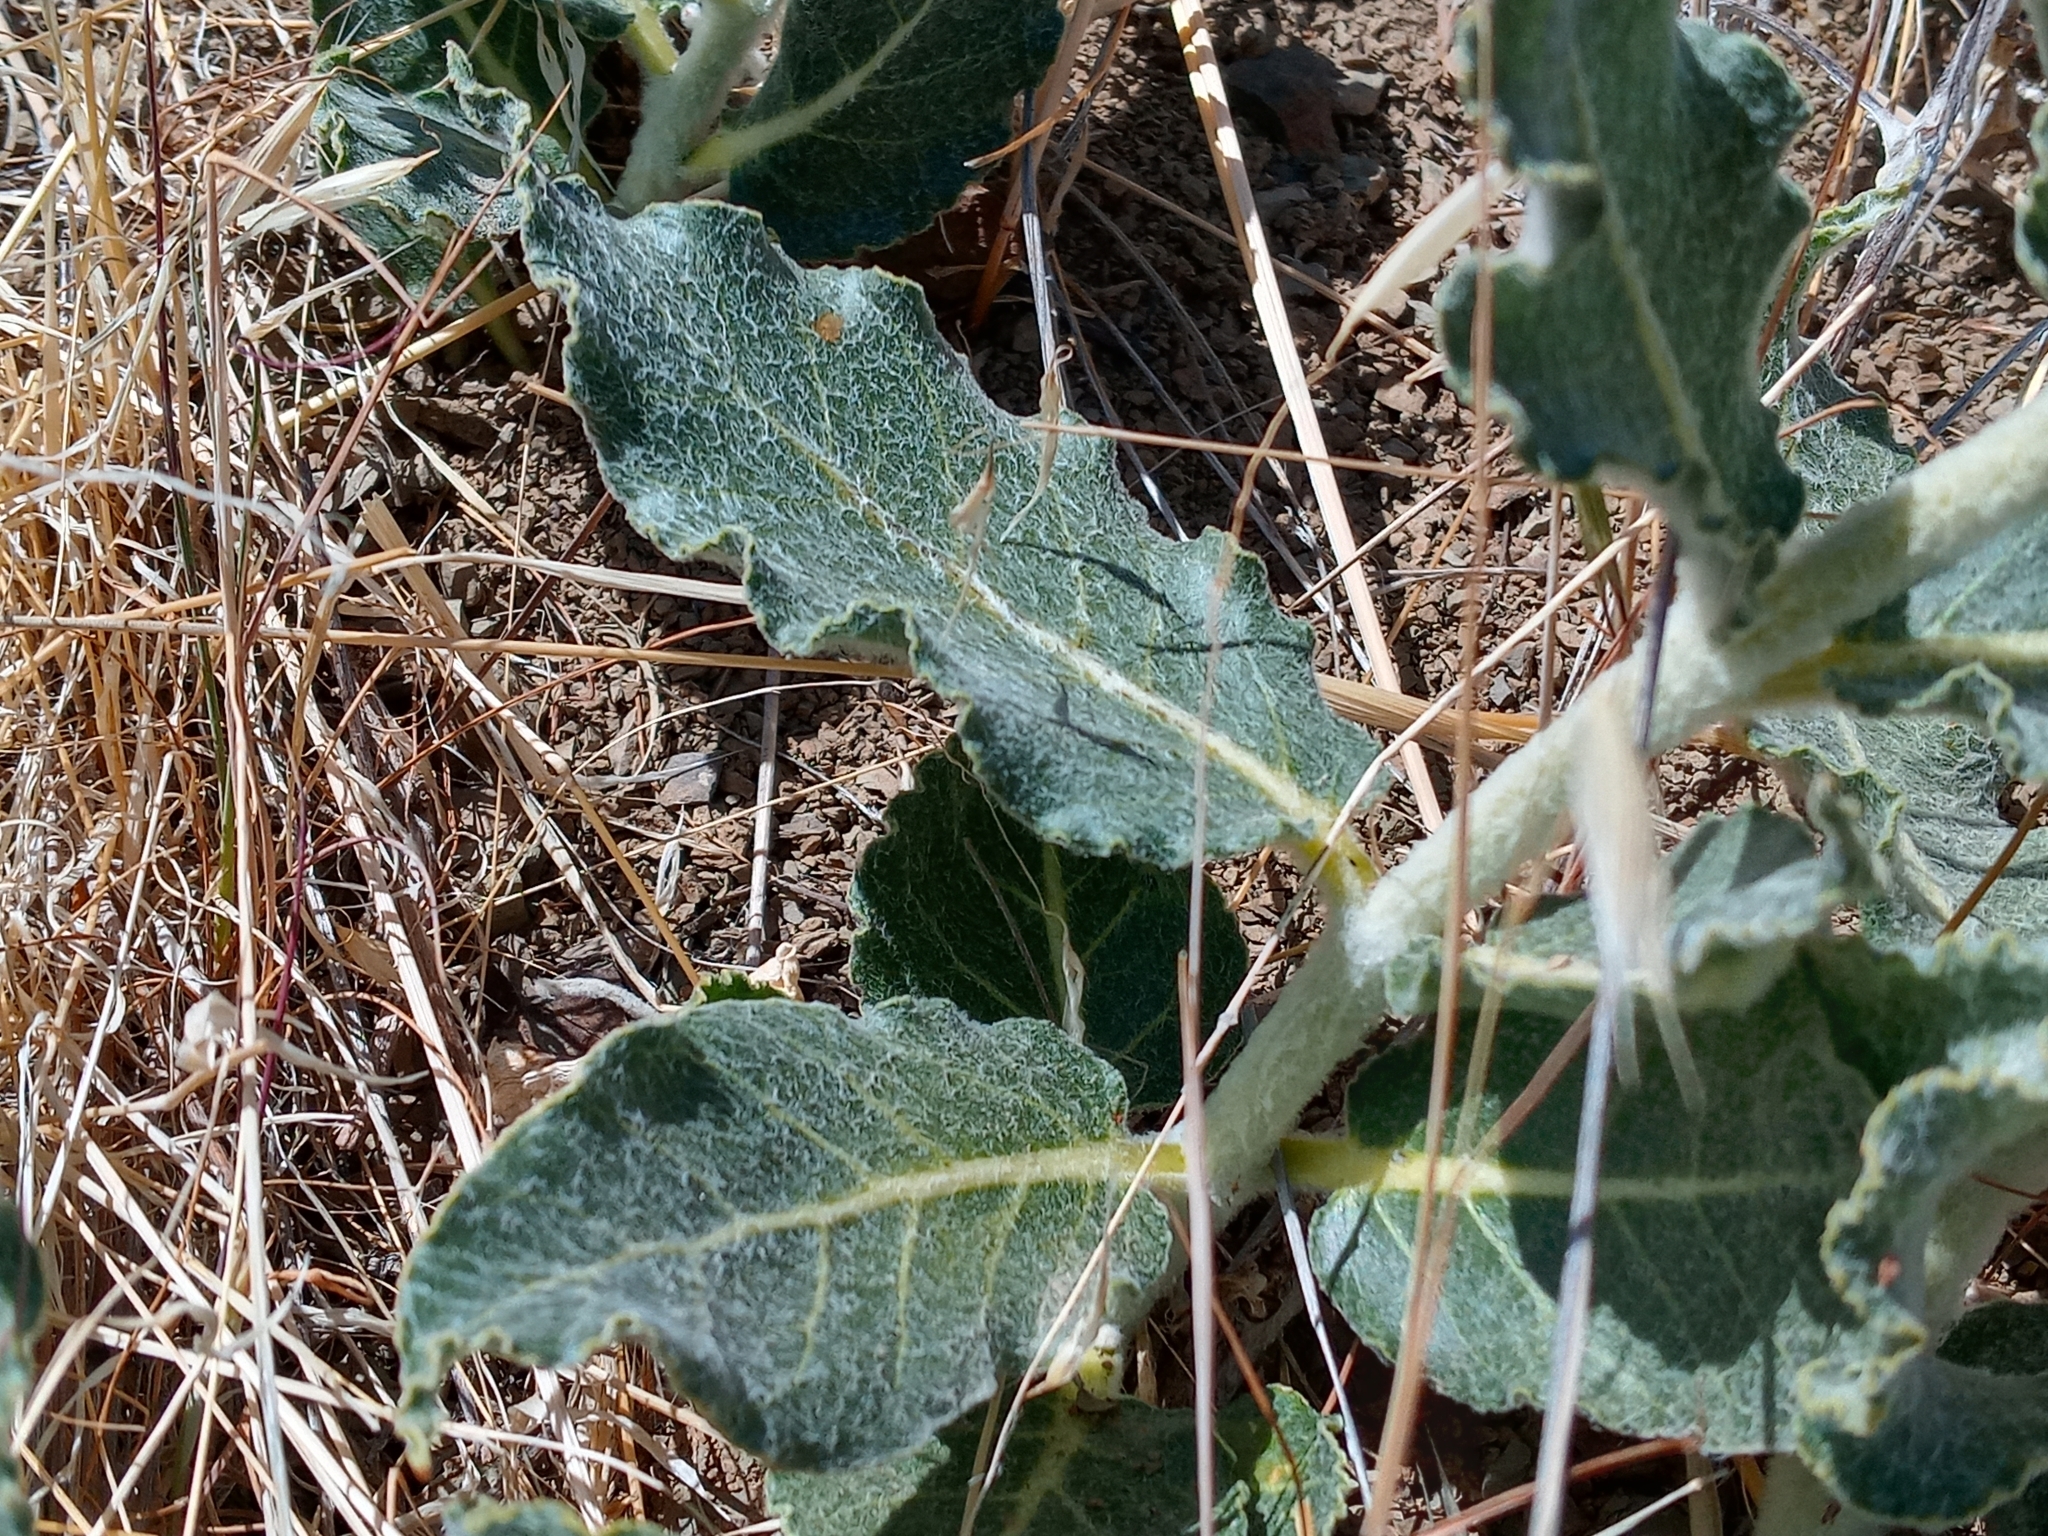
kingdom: Plantae
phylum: Tracheophyta
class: Magnoliopsida
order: Gentianales
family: Apocynaceae
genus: Asclepias
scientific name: Asclepias californica
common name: California milkweed
